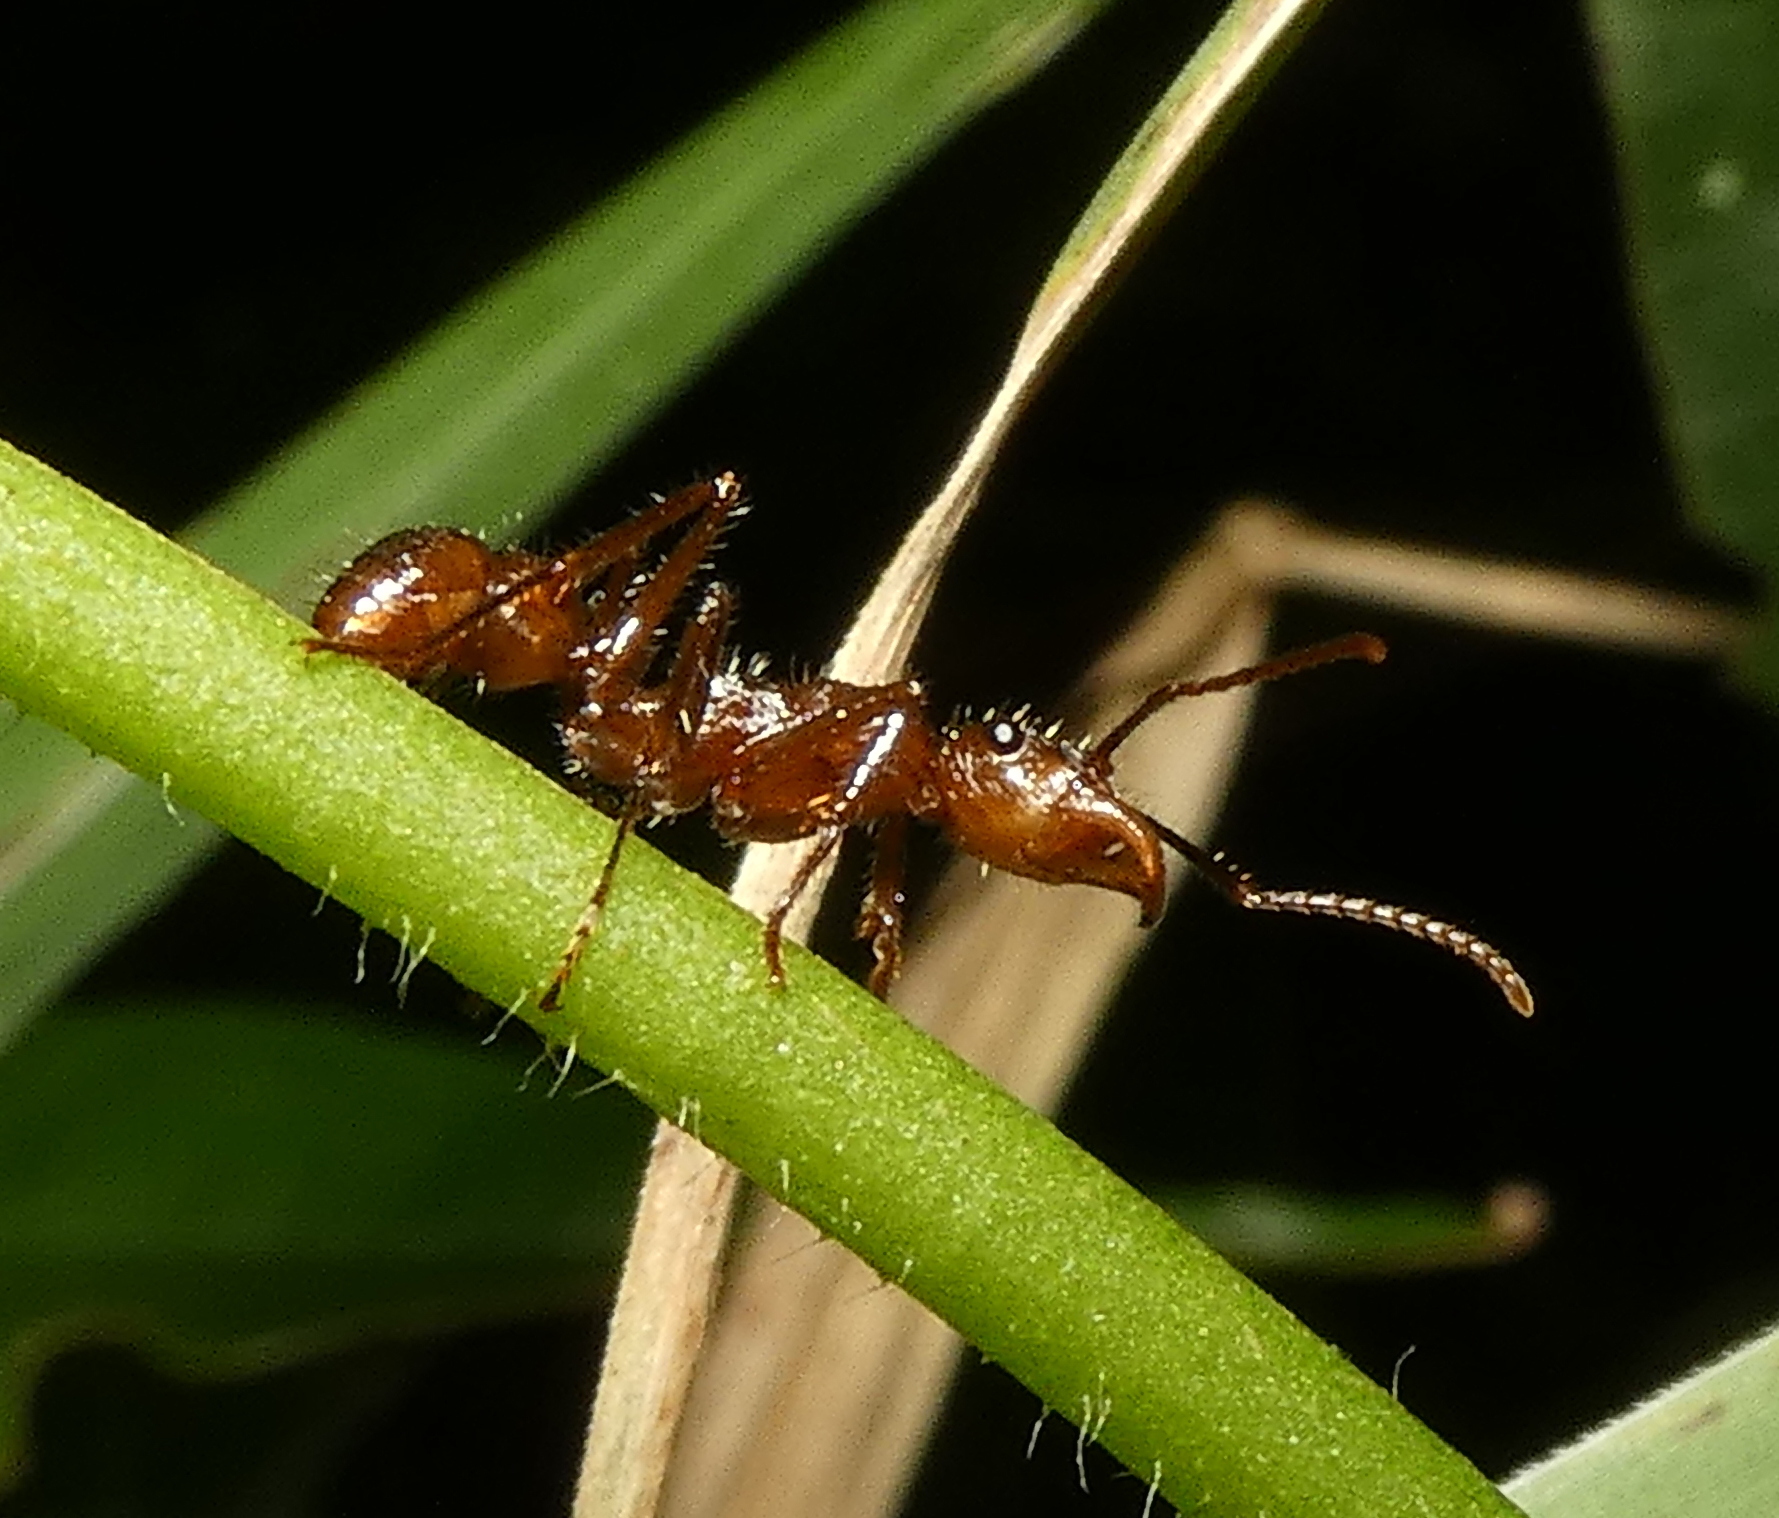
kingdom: Animalia
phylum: Arthropoda
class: Insecta
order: Hymenoptera
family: Formicidae
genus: Ectatomma
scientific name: Ectatomma tuberculatum
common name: Ant
